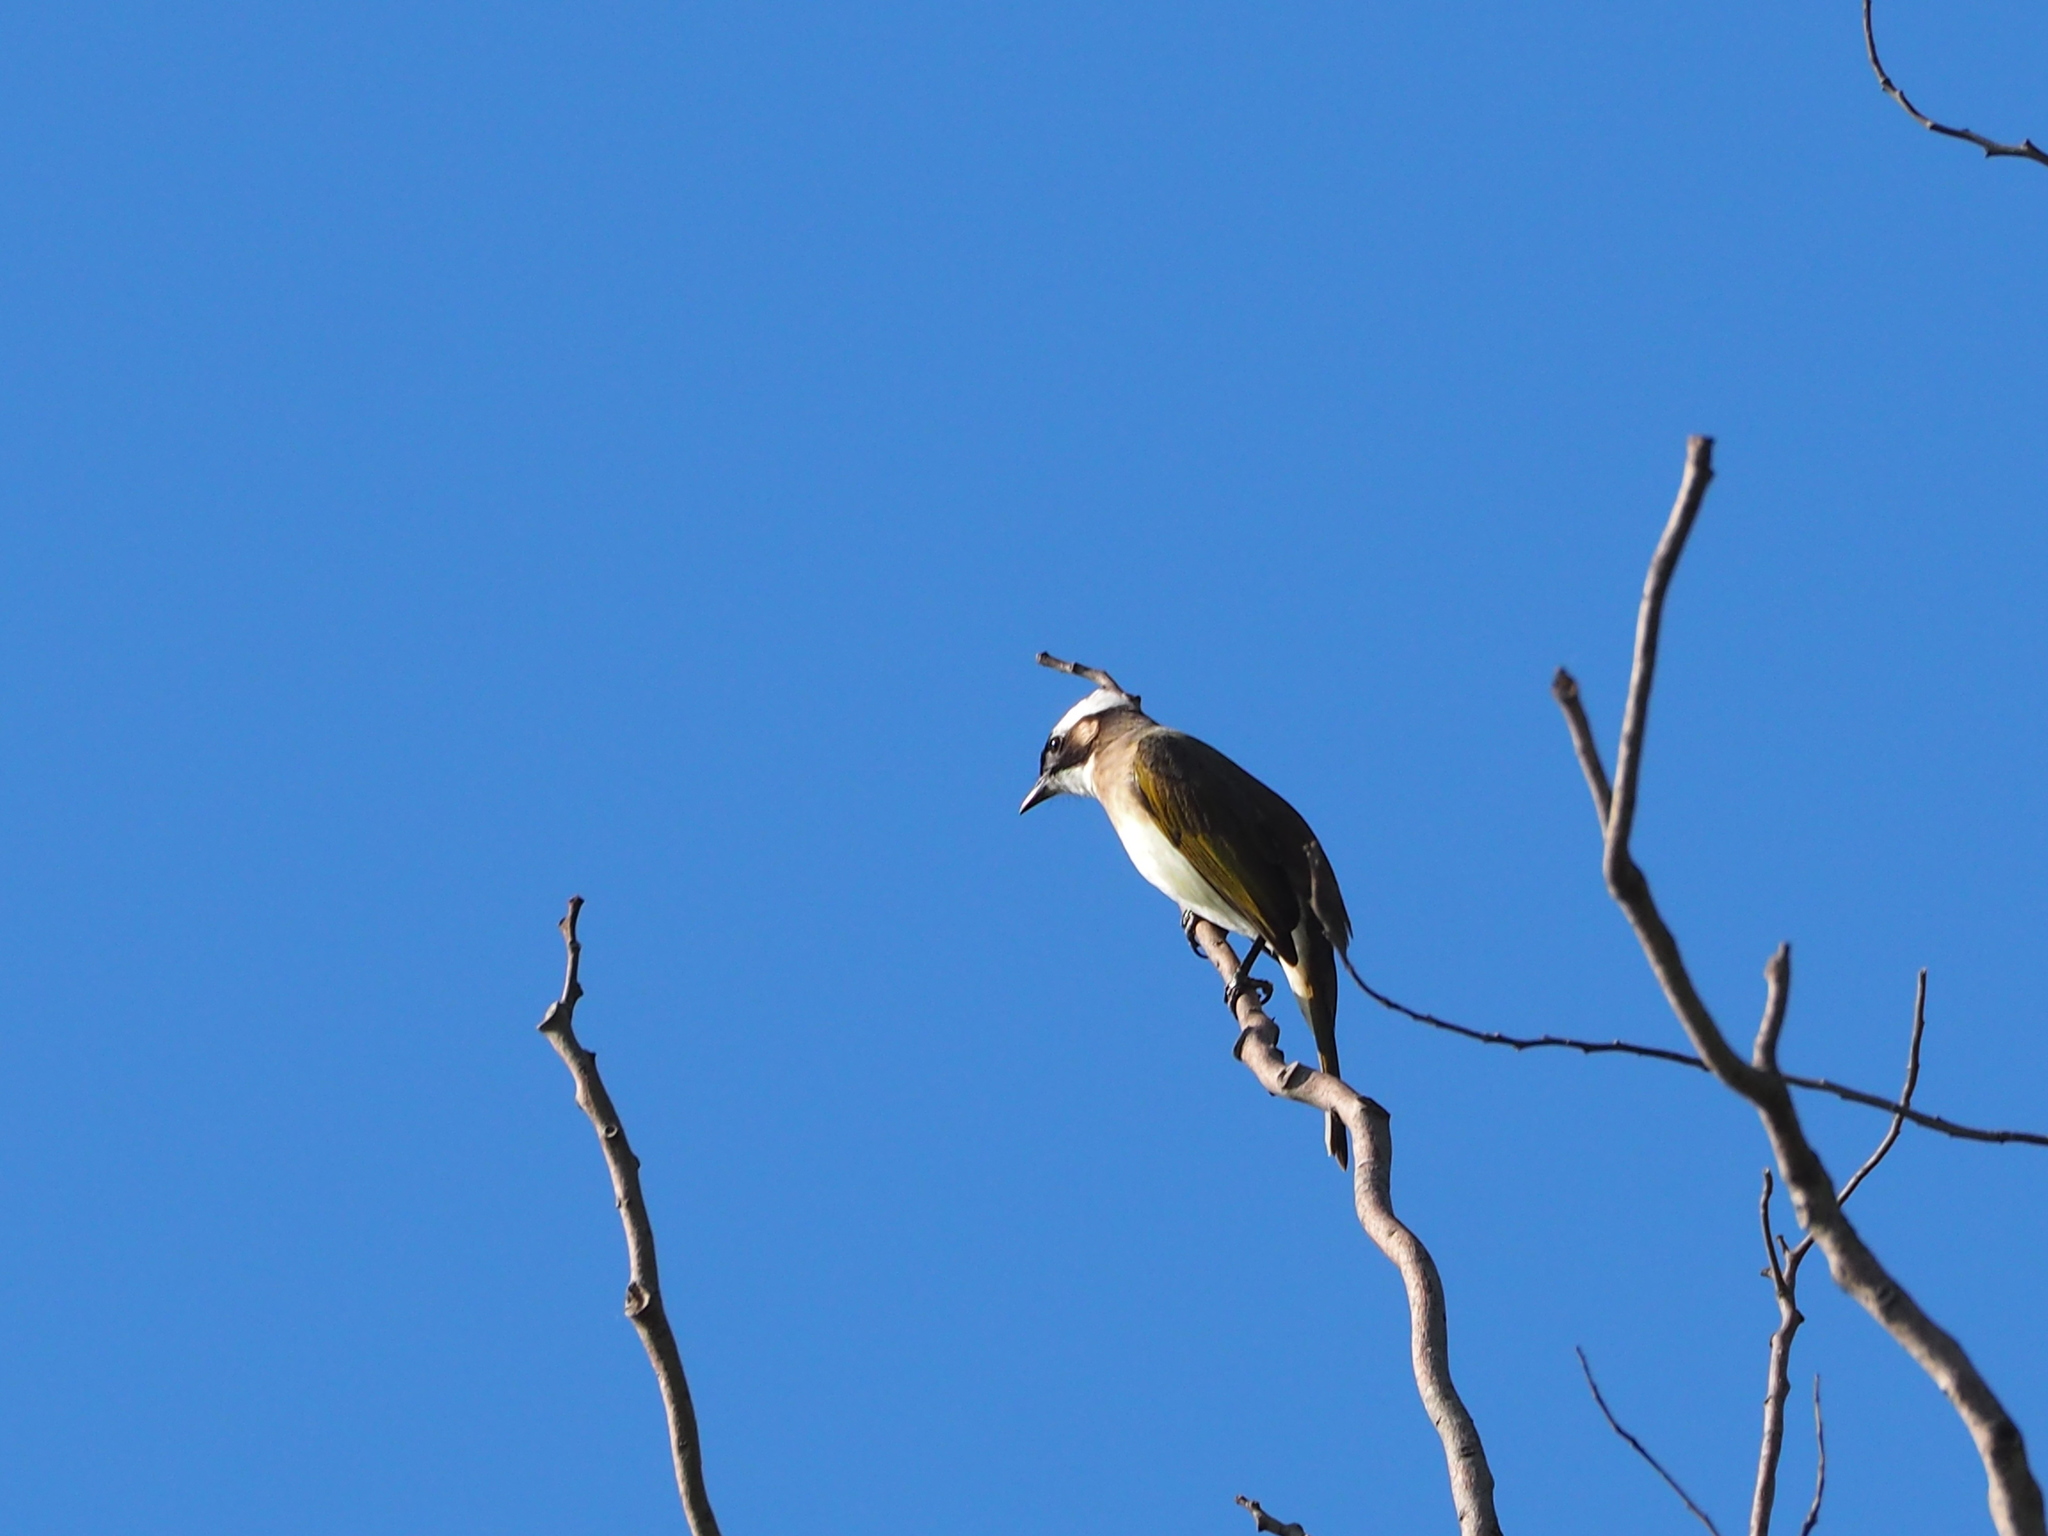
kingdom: Animalia
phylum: Chordata
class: Aves
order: Passeriformes
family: Pycnonotidae
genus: Pycnonotus
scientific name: Pycnonotus sinensis
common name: Light-vented bulbul
